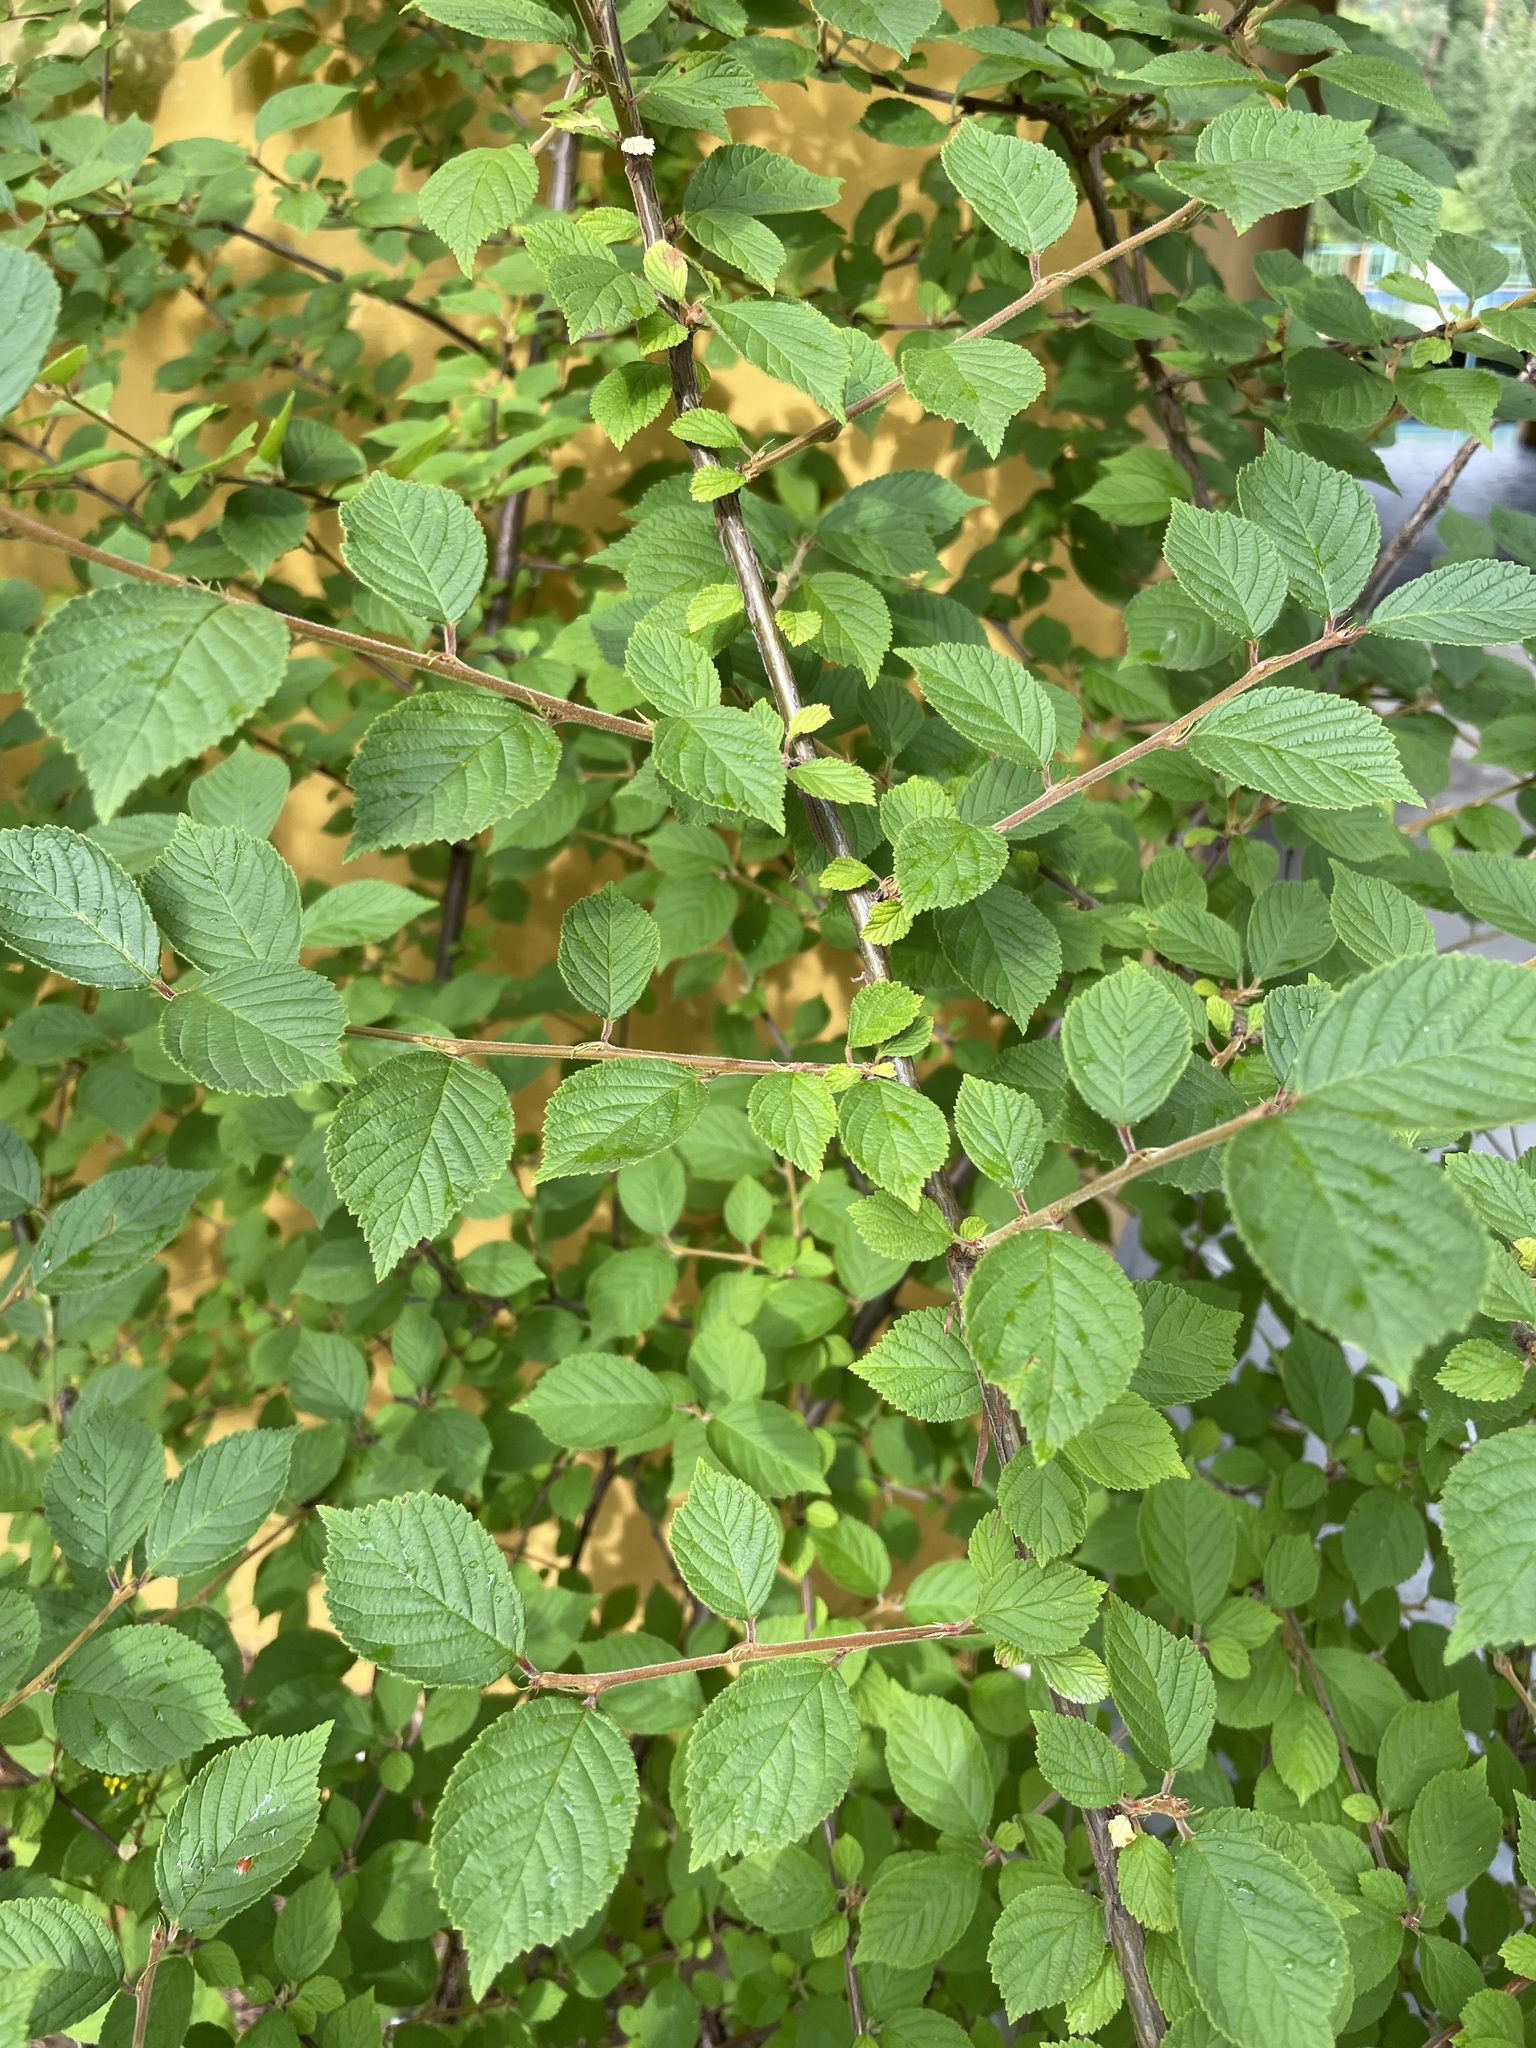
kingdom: Plantae
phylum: Tracheophyta
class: Magnoliopsida
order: Rosales
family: Rosaceae
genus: Prunus
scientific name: Prunus tomentosa
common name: Nanking cherry
